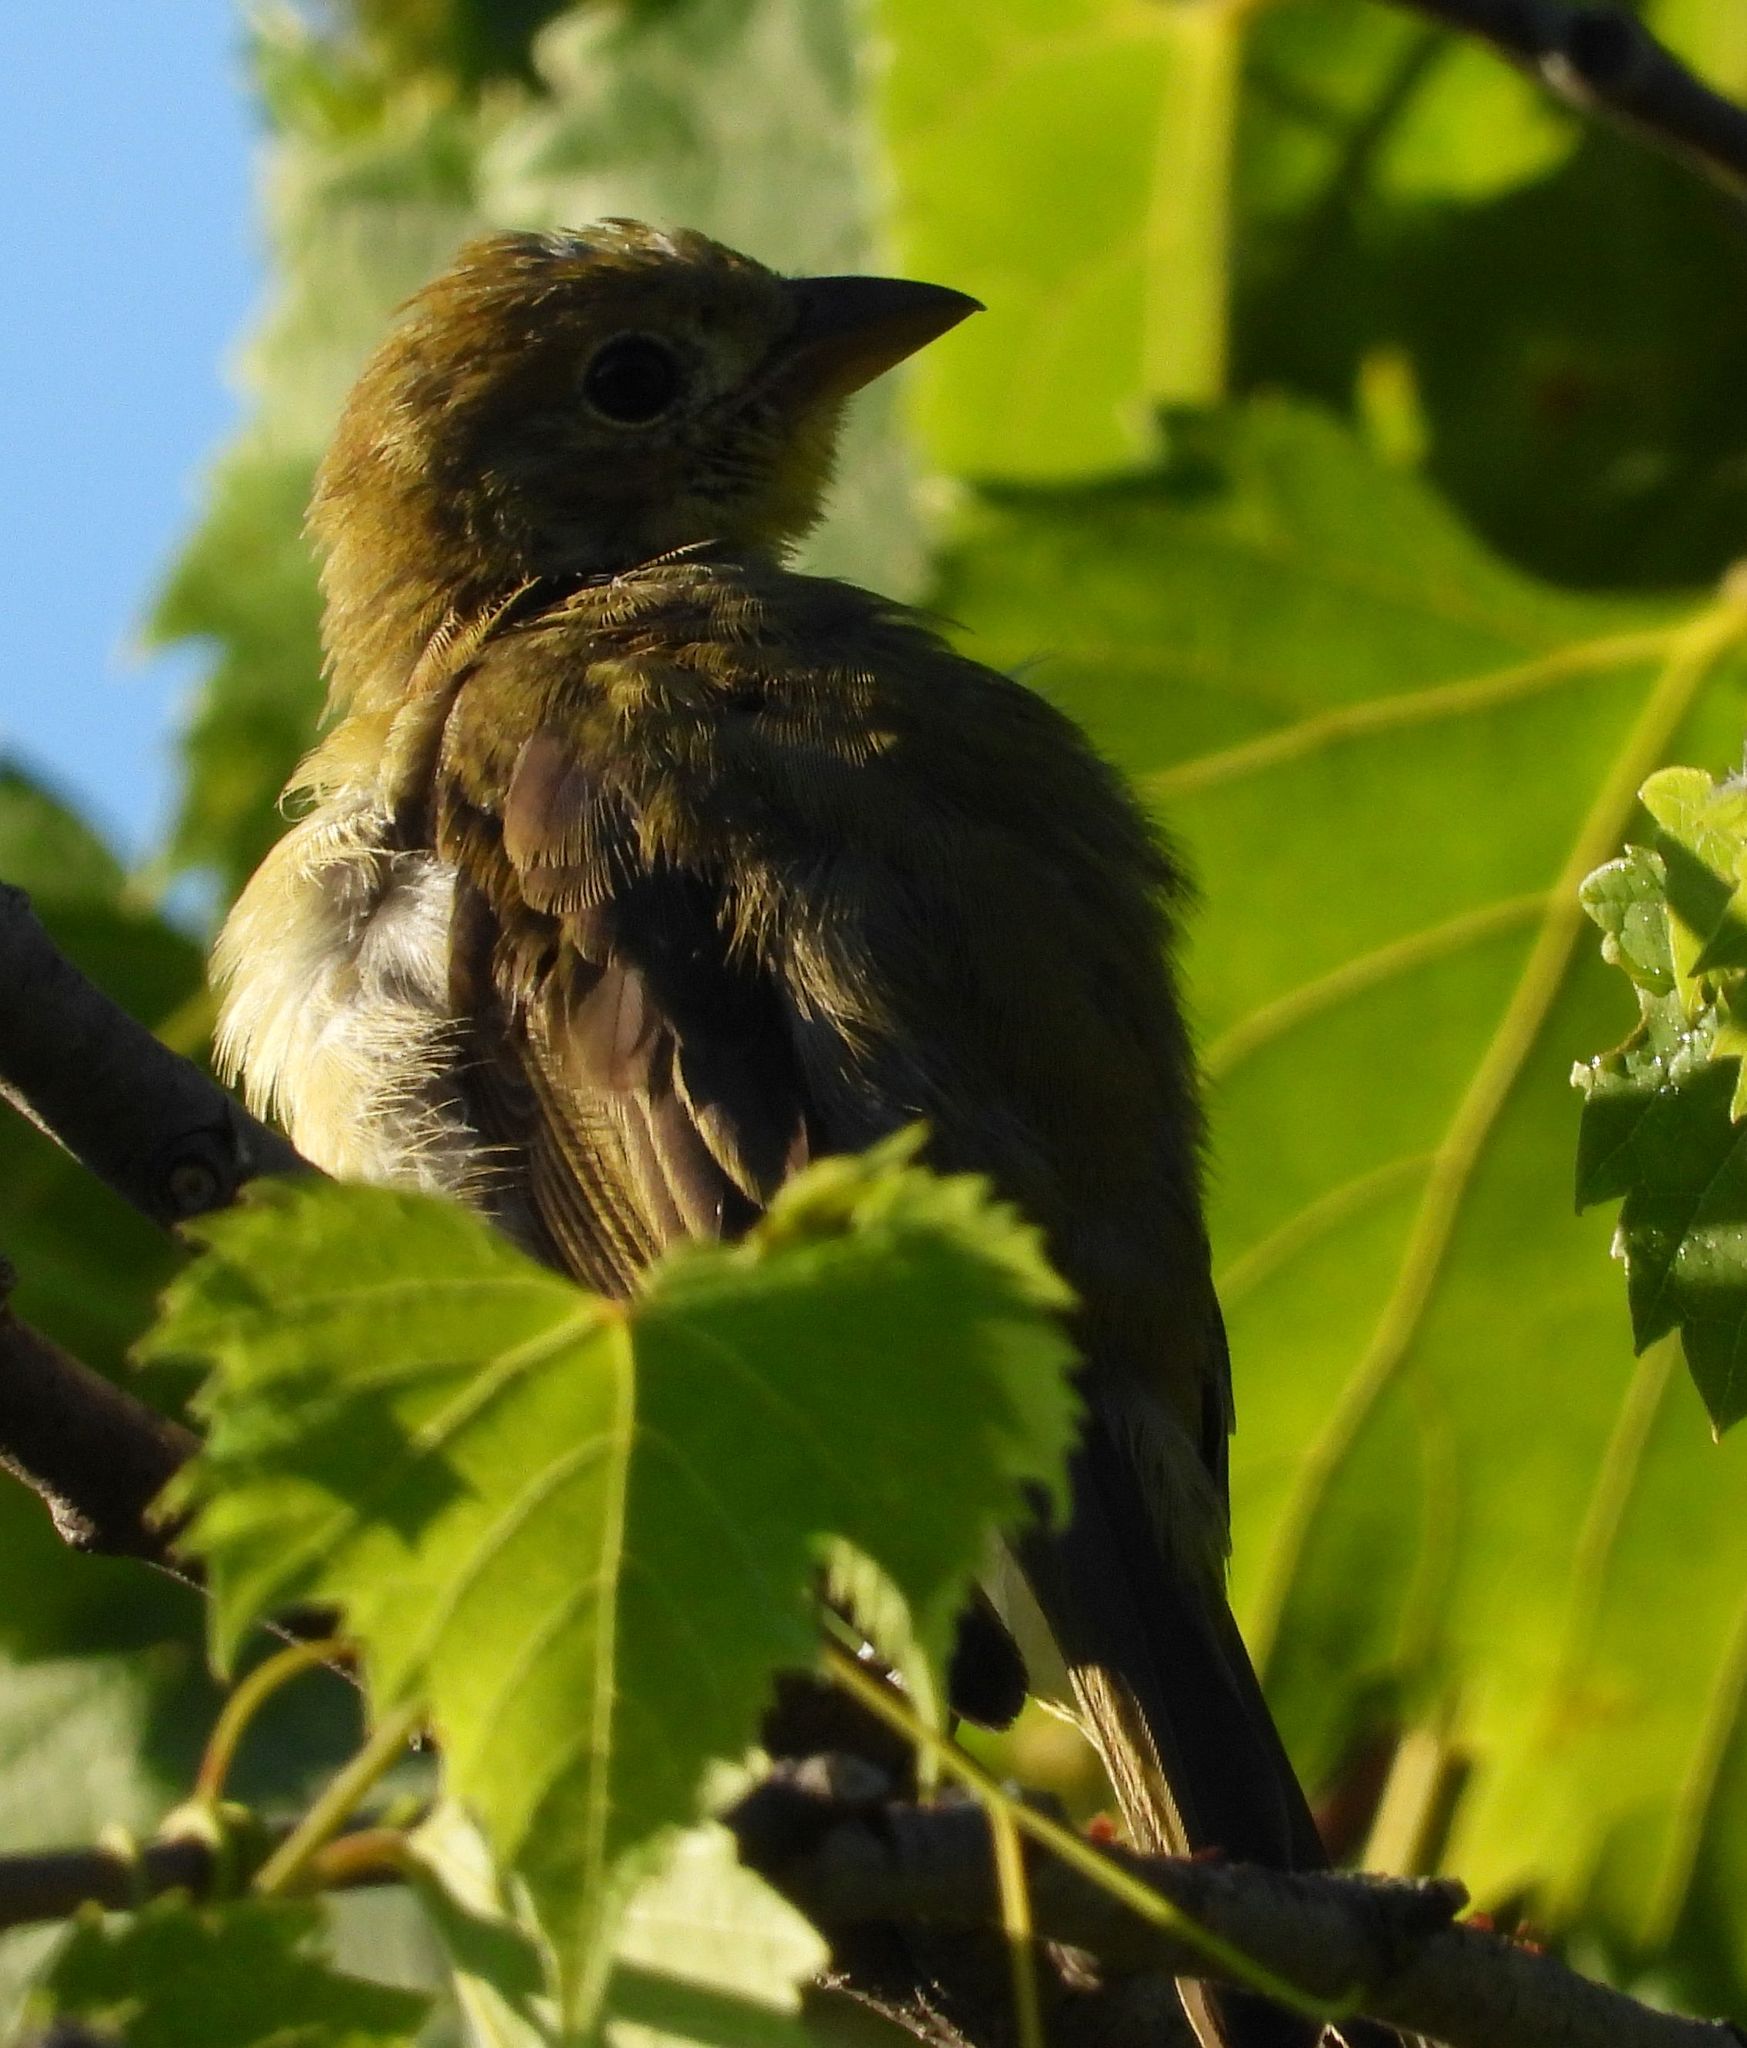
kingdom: Animalia
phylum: Chordata
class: Aves
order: Passeriformes
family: Cardinalidae
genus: Piranga
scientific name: Piranga olivacea
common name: Scarlet tanager
